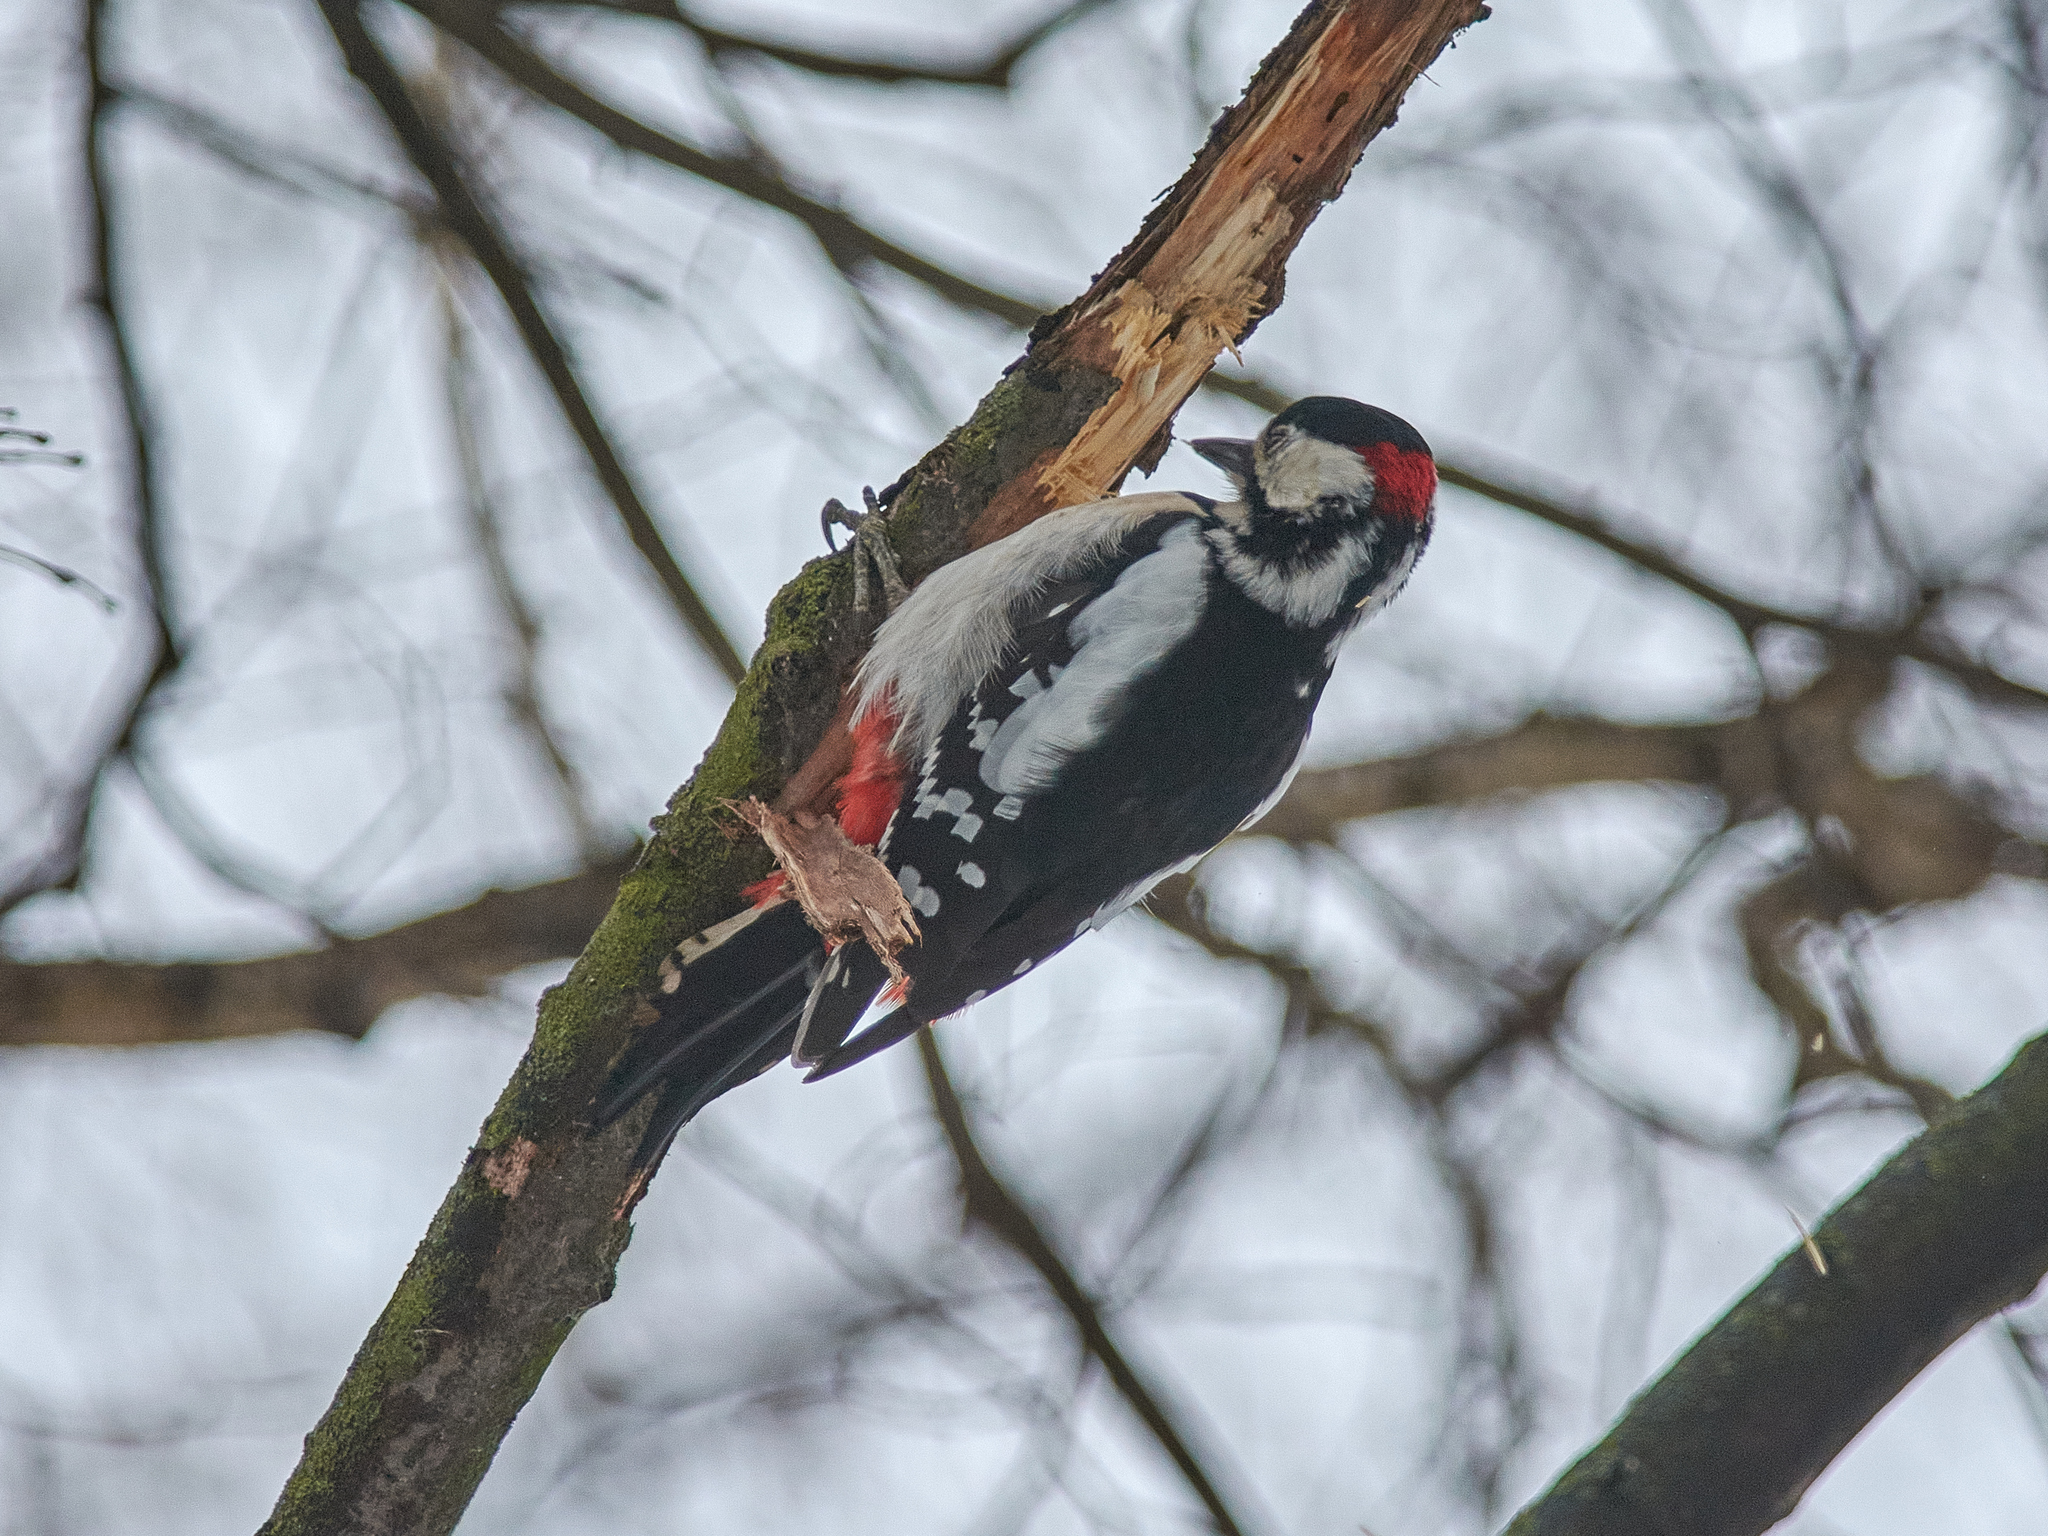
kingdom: Animalia
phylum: Chordata
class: Aves
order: Piciformes
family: Picidae
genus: Dendrocopos
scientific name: Dendrocopos major
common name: Great spotted woodpecker
